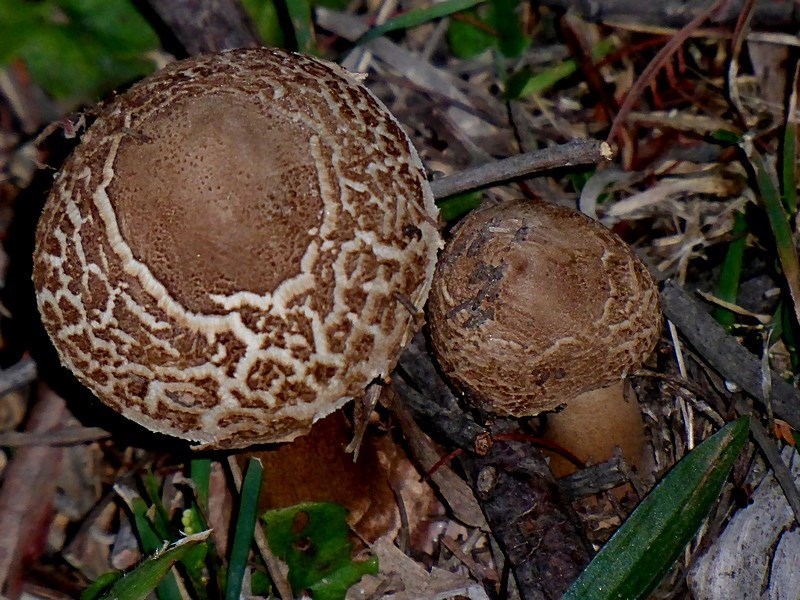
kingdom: Fungi
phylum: Basidiomycota
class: Agaricomycetes
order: Agaricales
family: Agaricaceae
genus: Macrolepiota
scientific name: Macrolepiota clelandii
